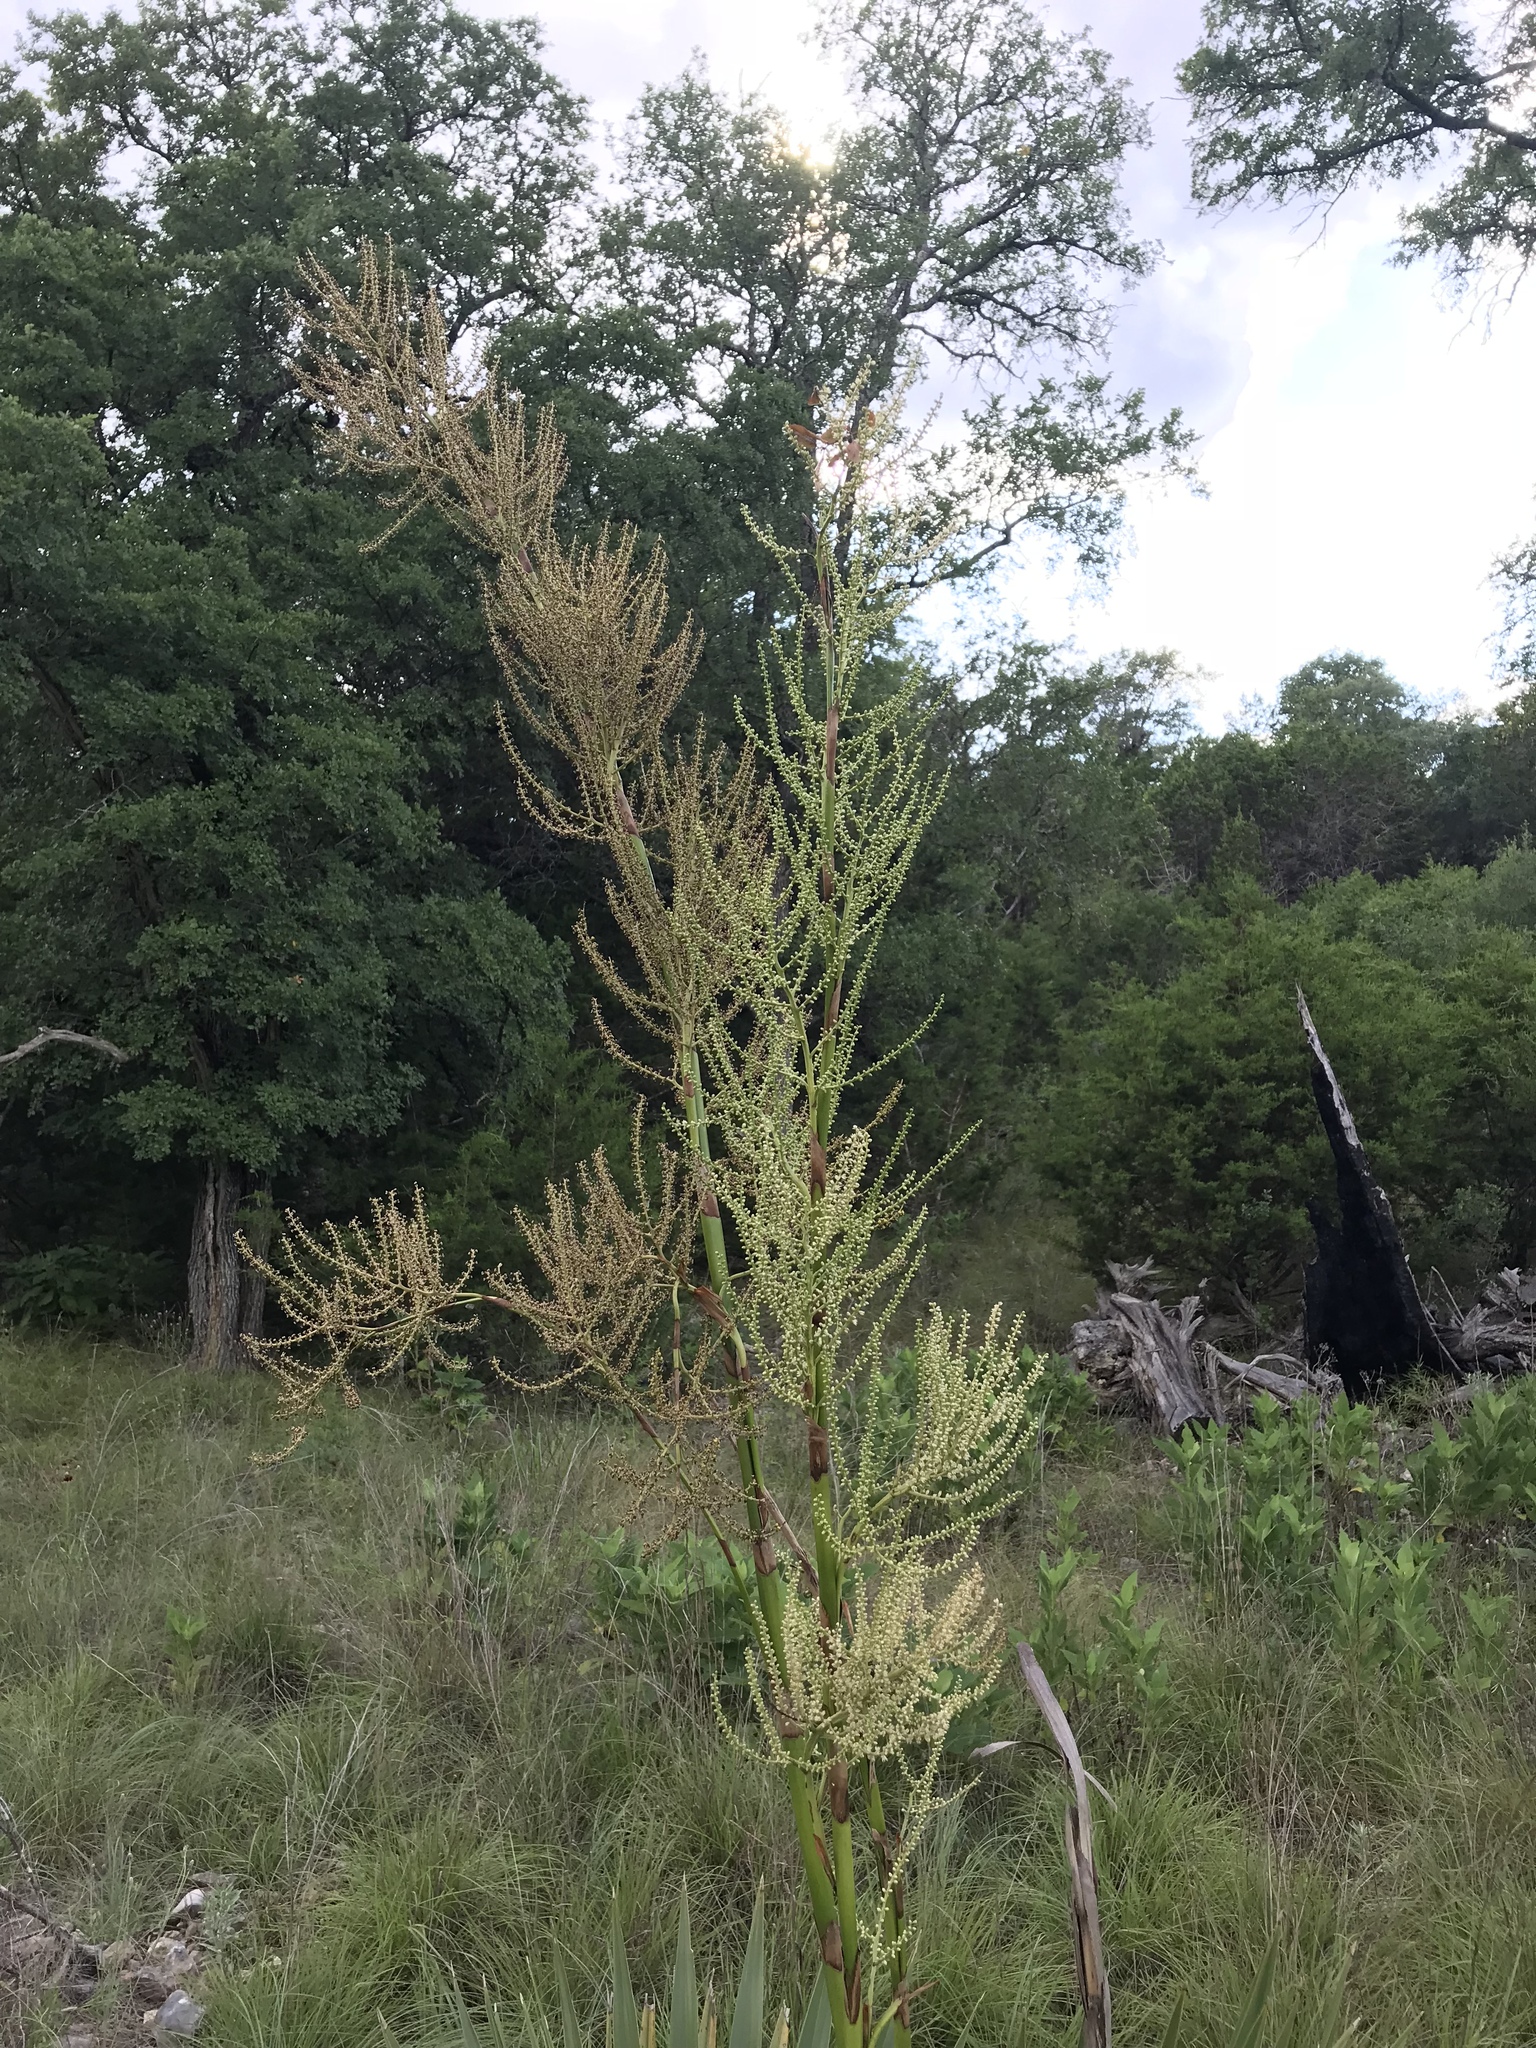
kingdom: Plantae
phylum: Tracheophyta
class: Liliopsida
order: Arecales
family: Arecaceae
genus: Sabal
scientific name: Sabal minor
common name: Dwarf palmetto
